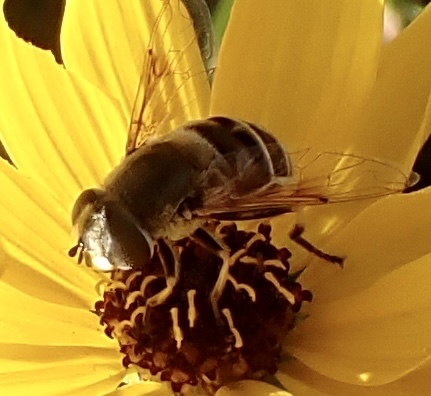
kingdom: Animalia
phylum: Arthropoda
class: Insecta
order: Diptera
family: Syrphidae
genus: Eristalis
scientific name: Eristalis dimidiata
